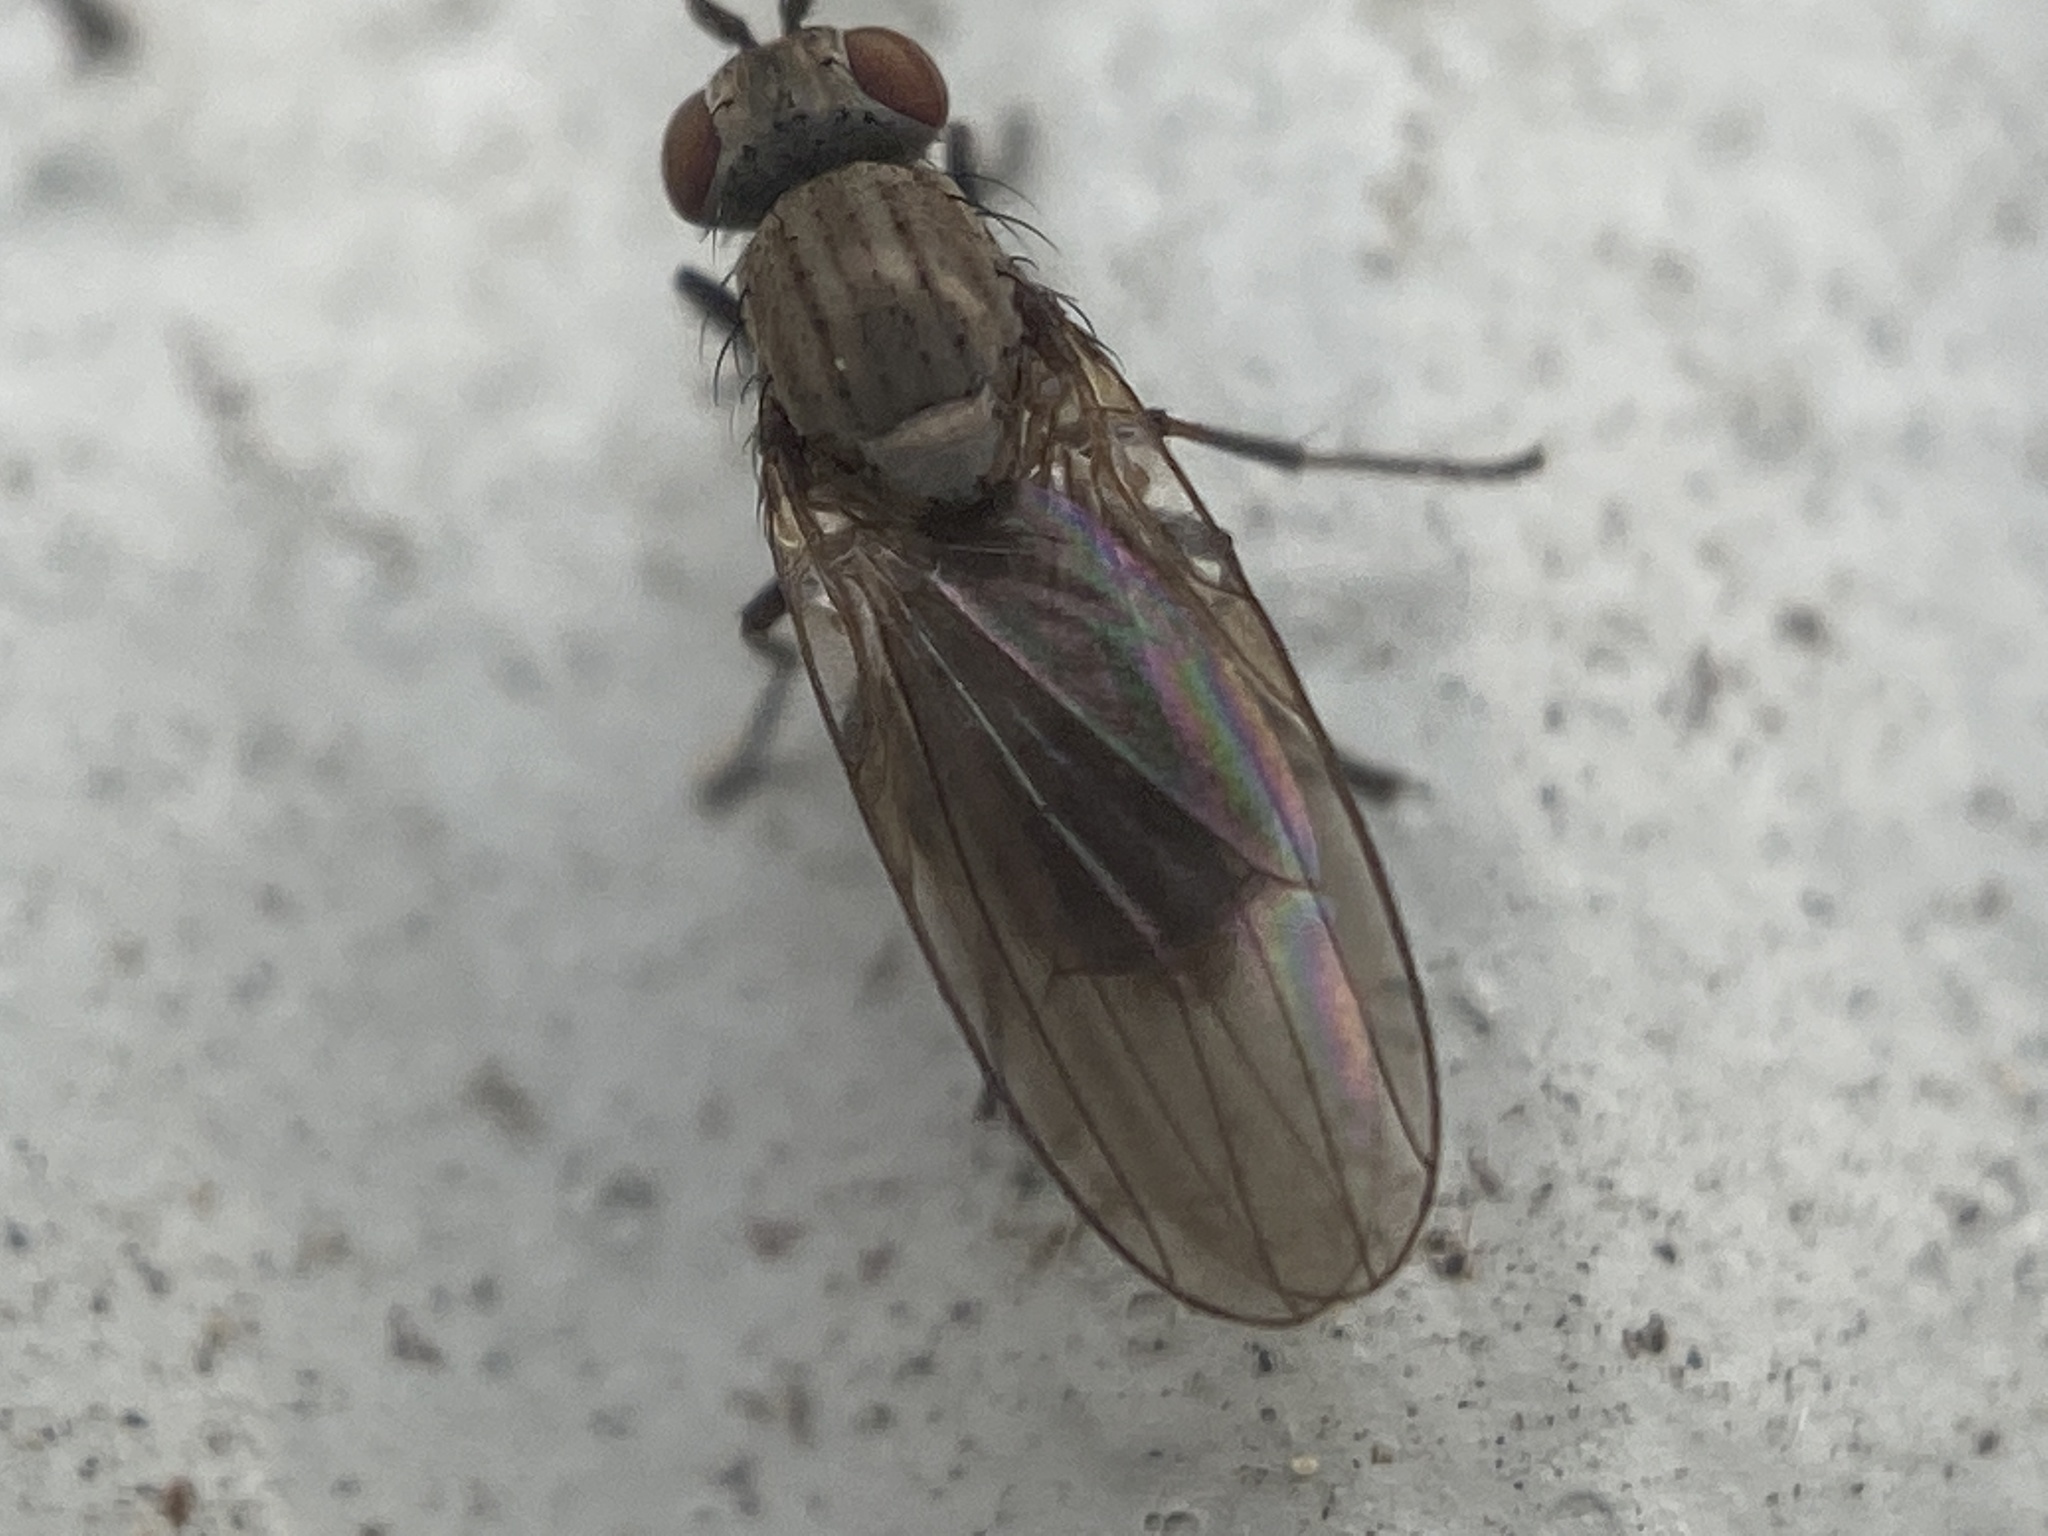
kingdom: Animalia
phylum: Arthropoda
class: Insecta
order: Diptera
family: Lauxaniidae
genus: Sapromyza
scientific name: Sapromyza brachysoma
